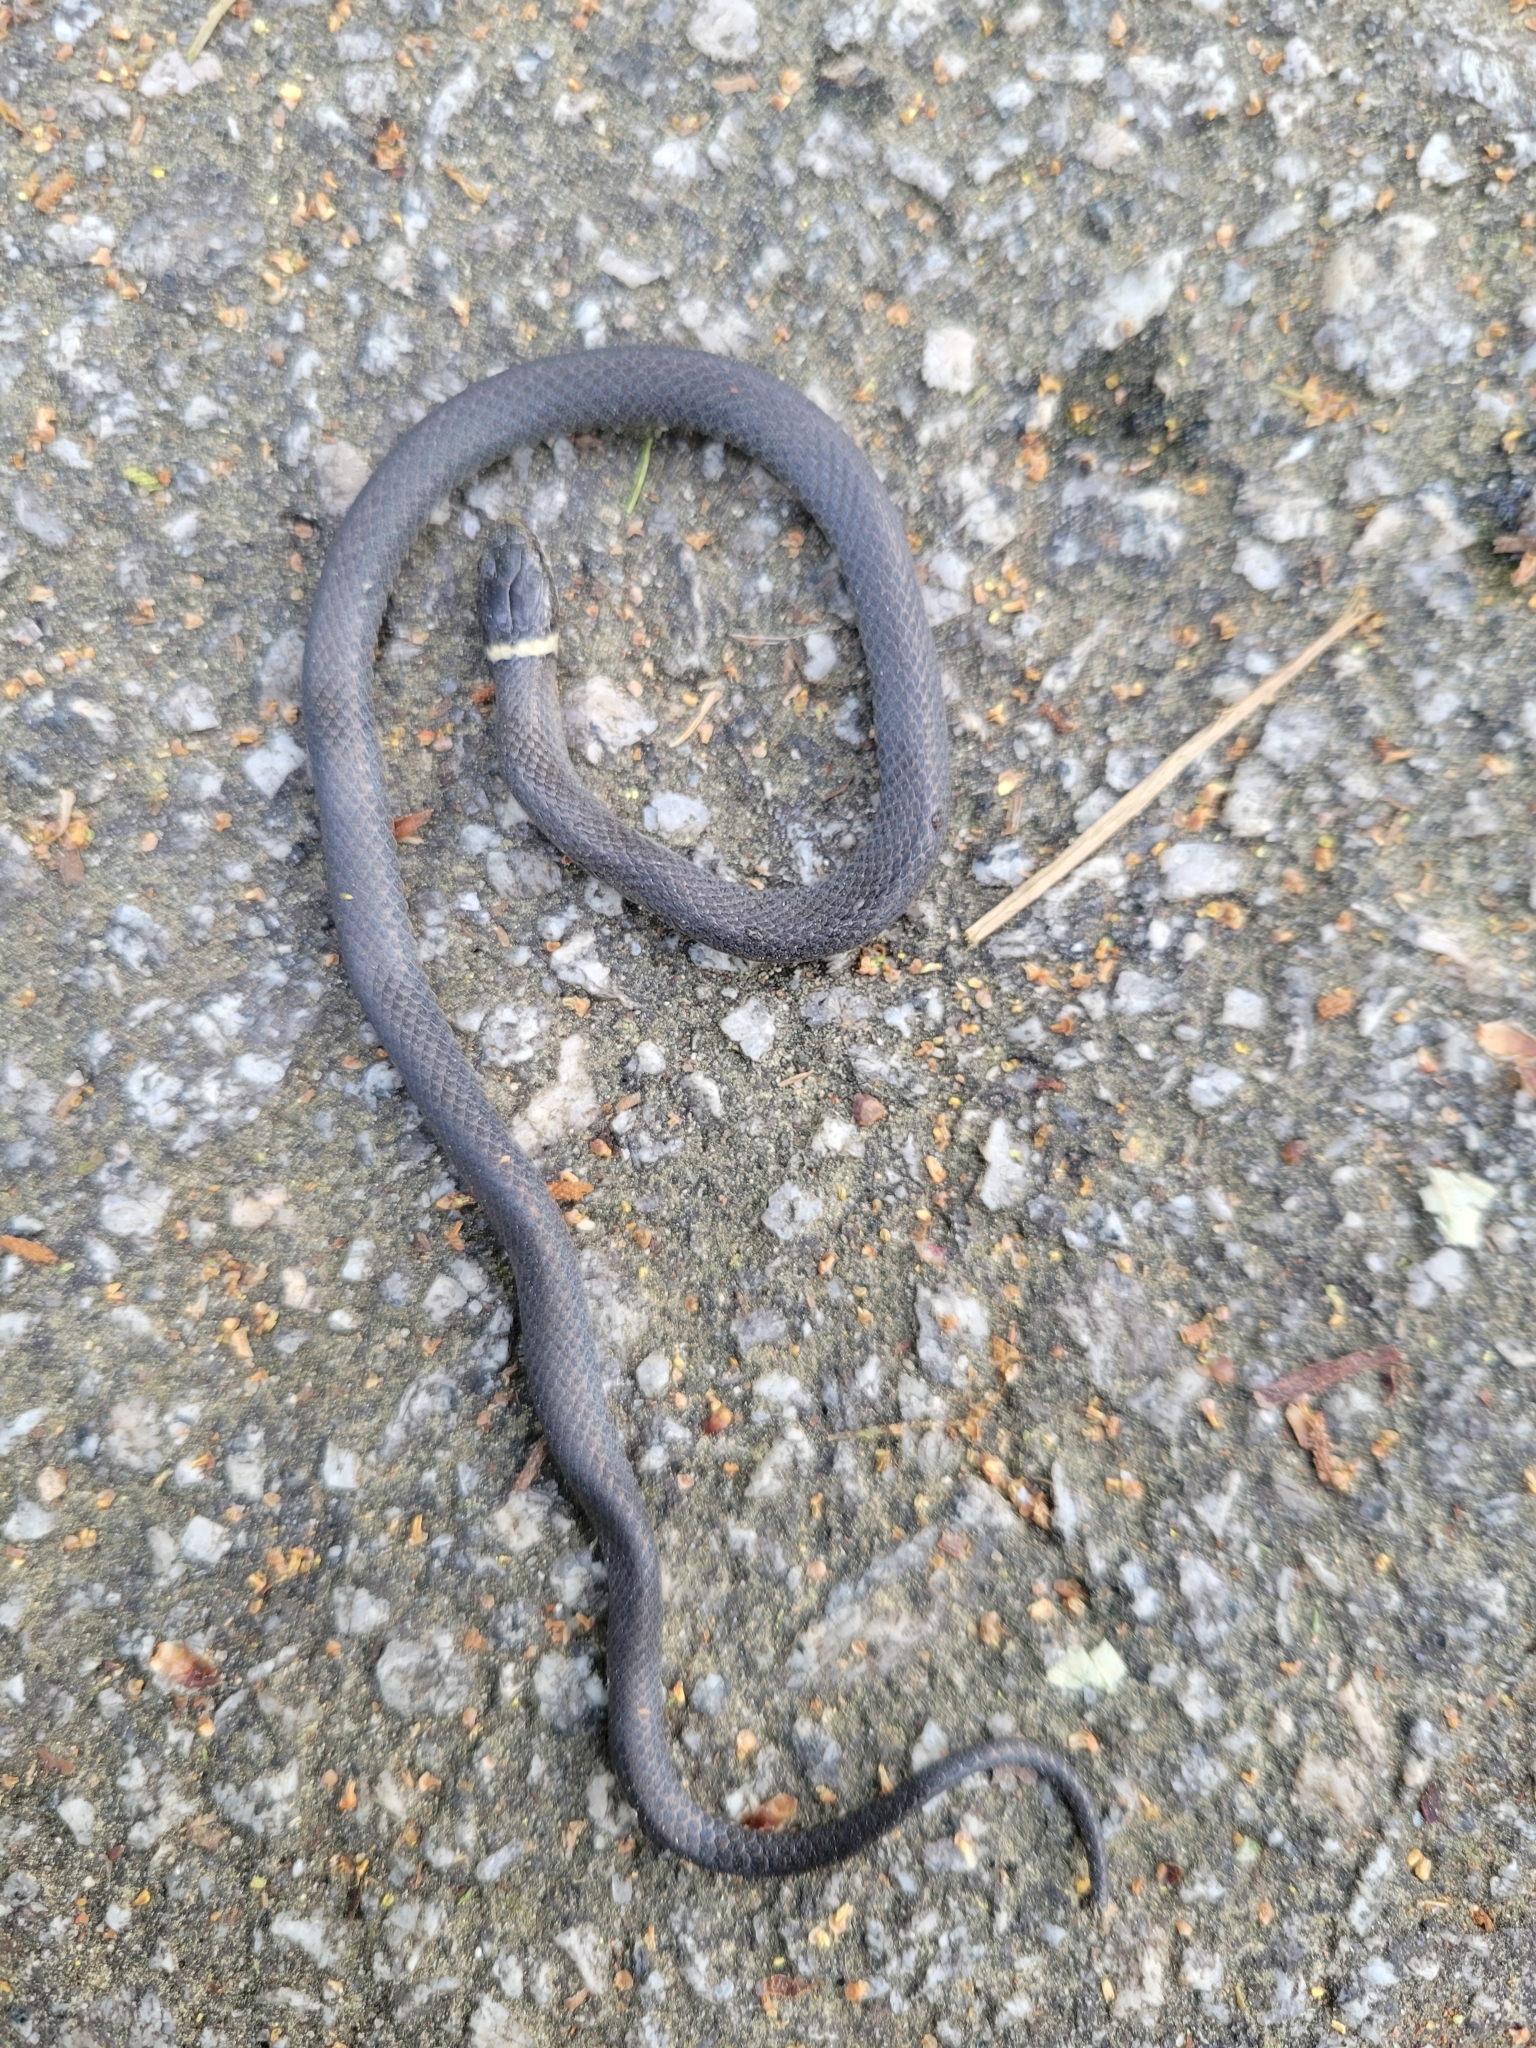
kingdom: Animalia
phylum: Chordata
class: Squamata
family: Colubridae
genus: Diadophis
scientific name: Diadophis punctatus
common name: Ringneck snake
